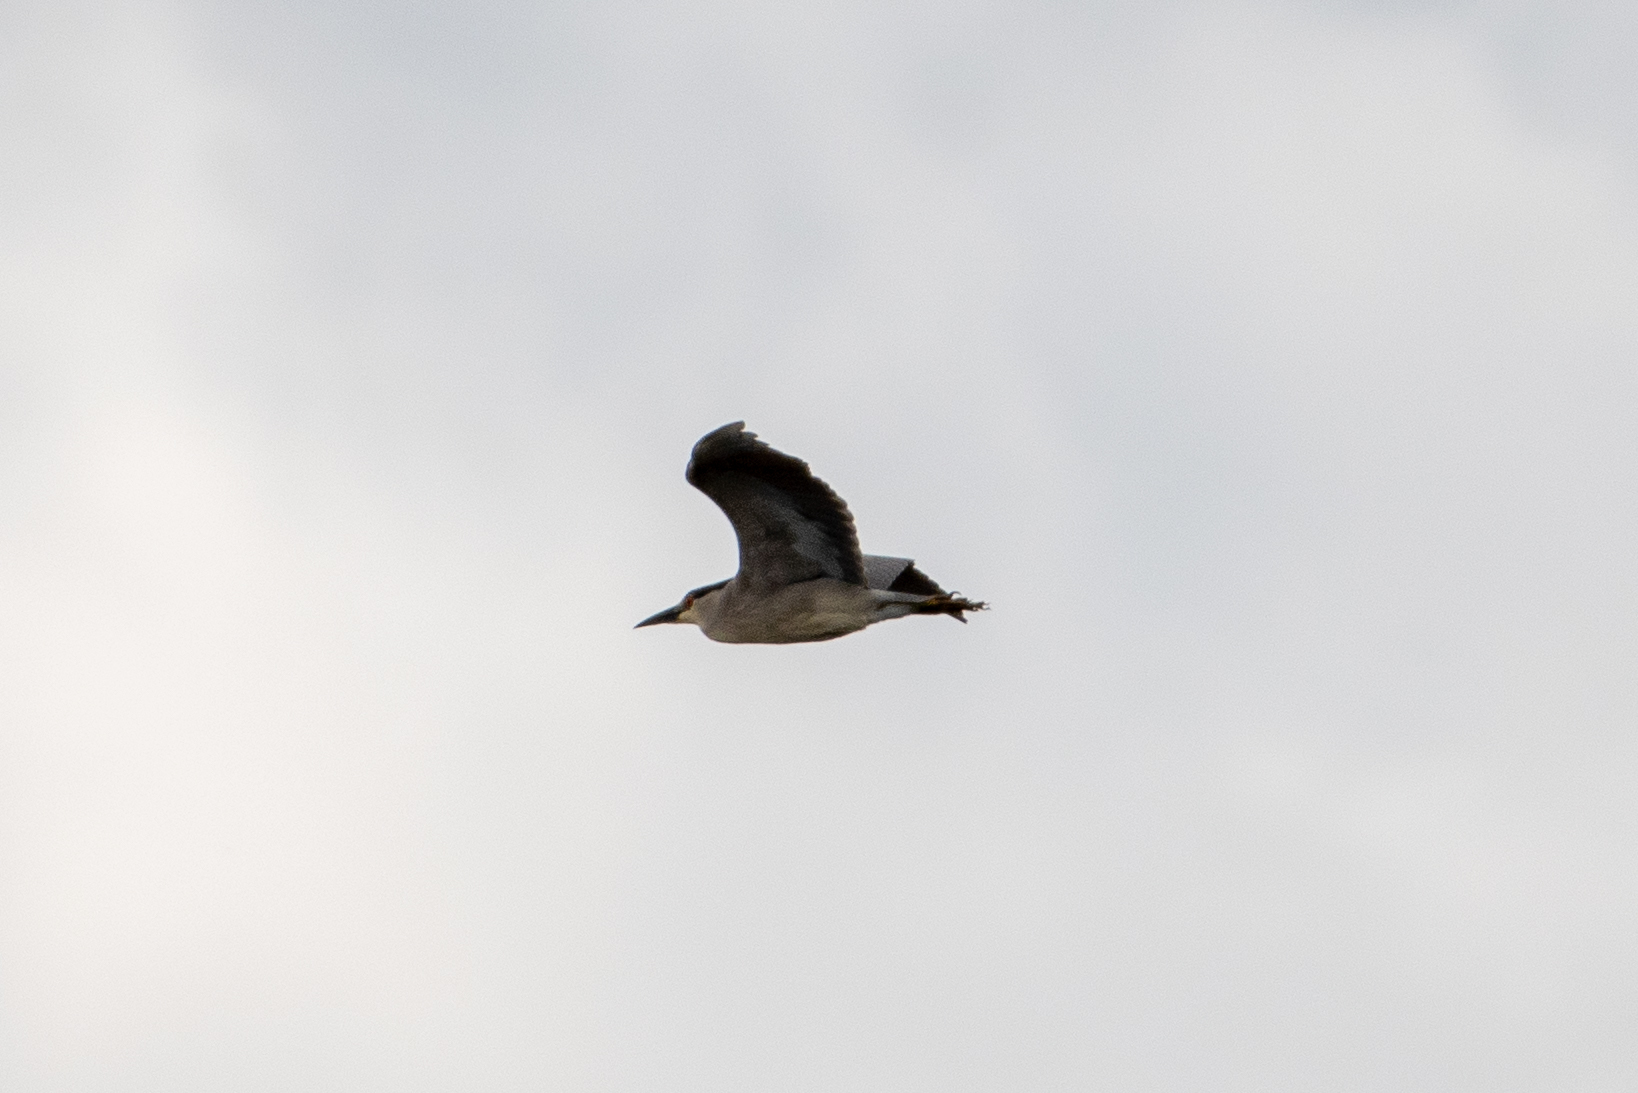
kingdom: Animalia
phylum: Chordata
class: Aves
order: Pelecaniformes
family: Ardeidae
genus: Nycticorax
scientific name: Nycticorax nycticorax
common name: Black-crowned night heron
